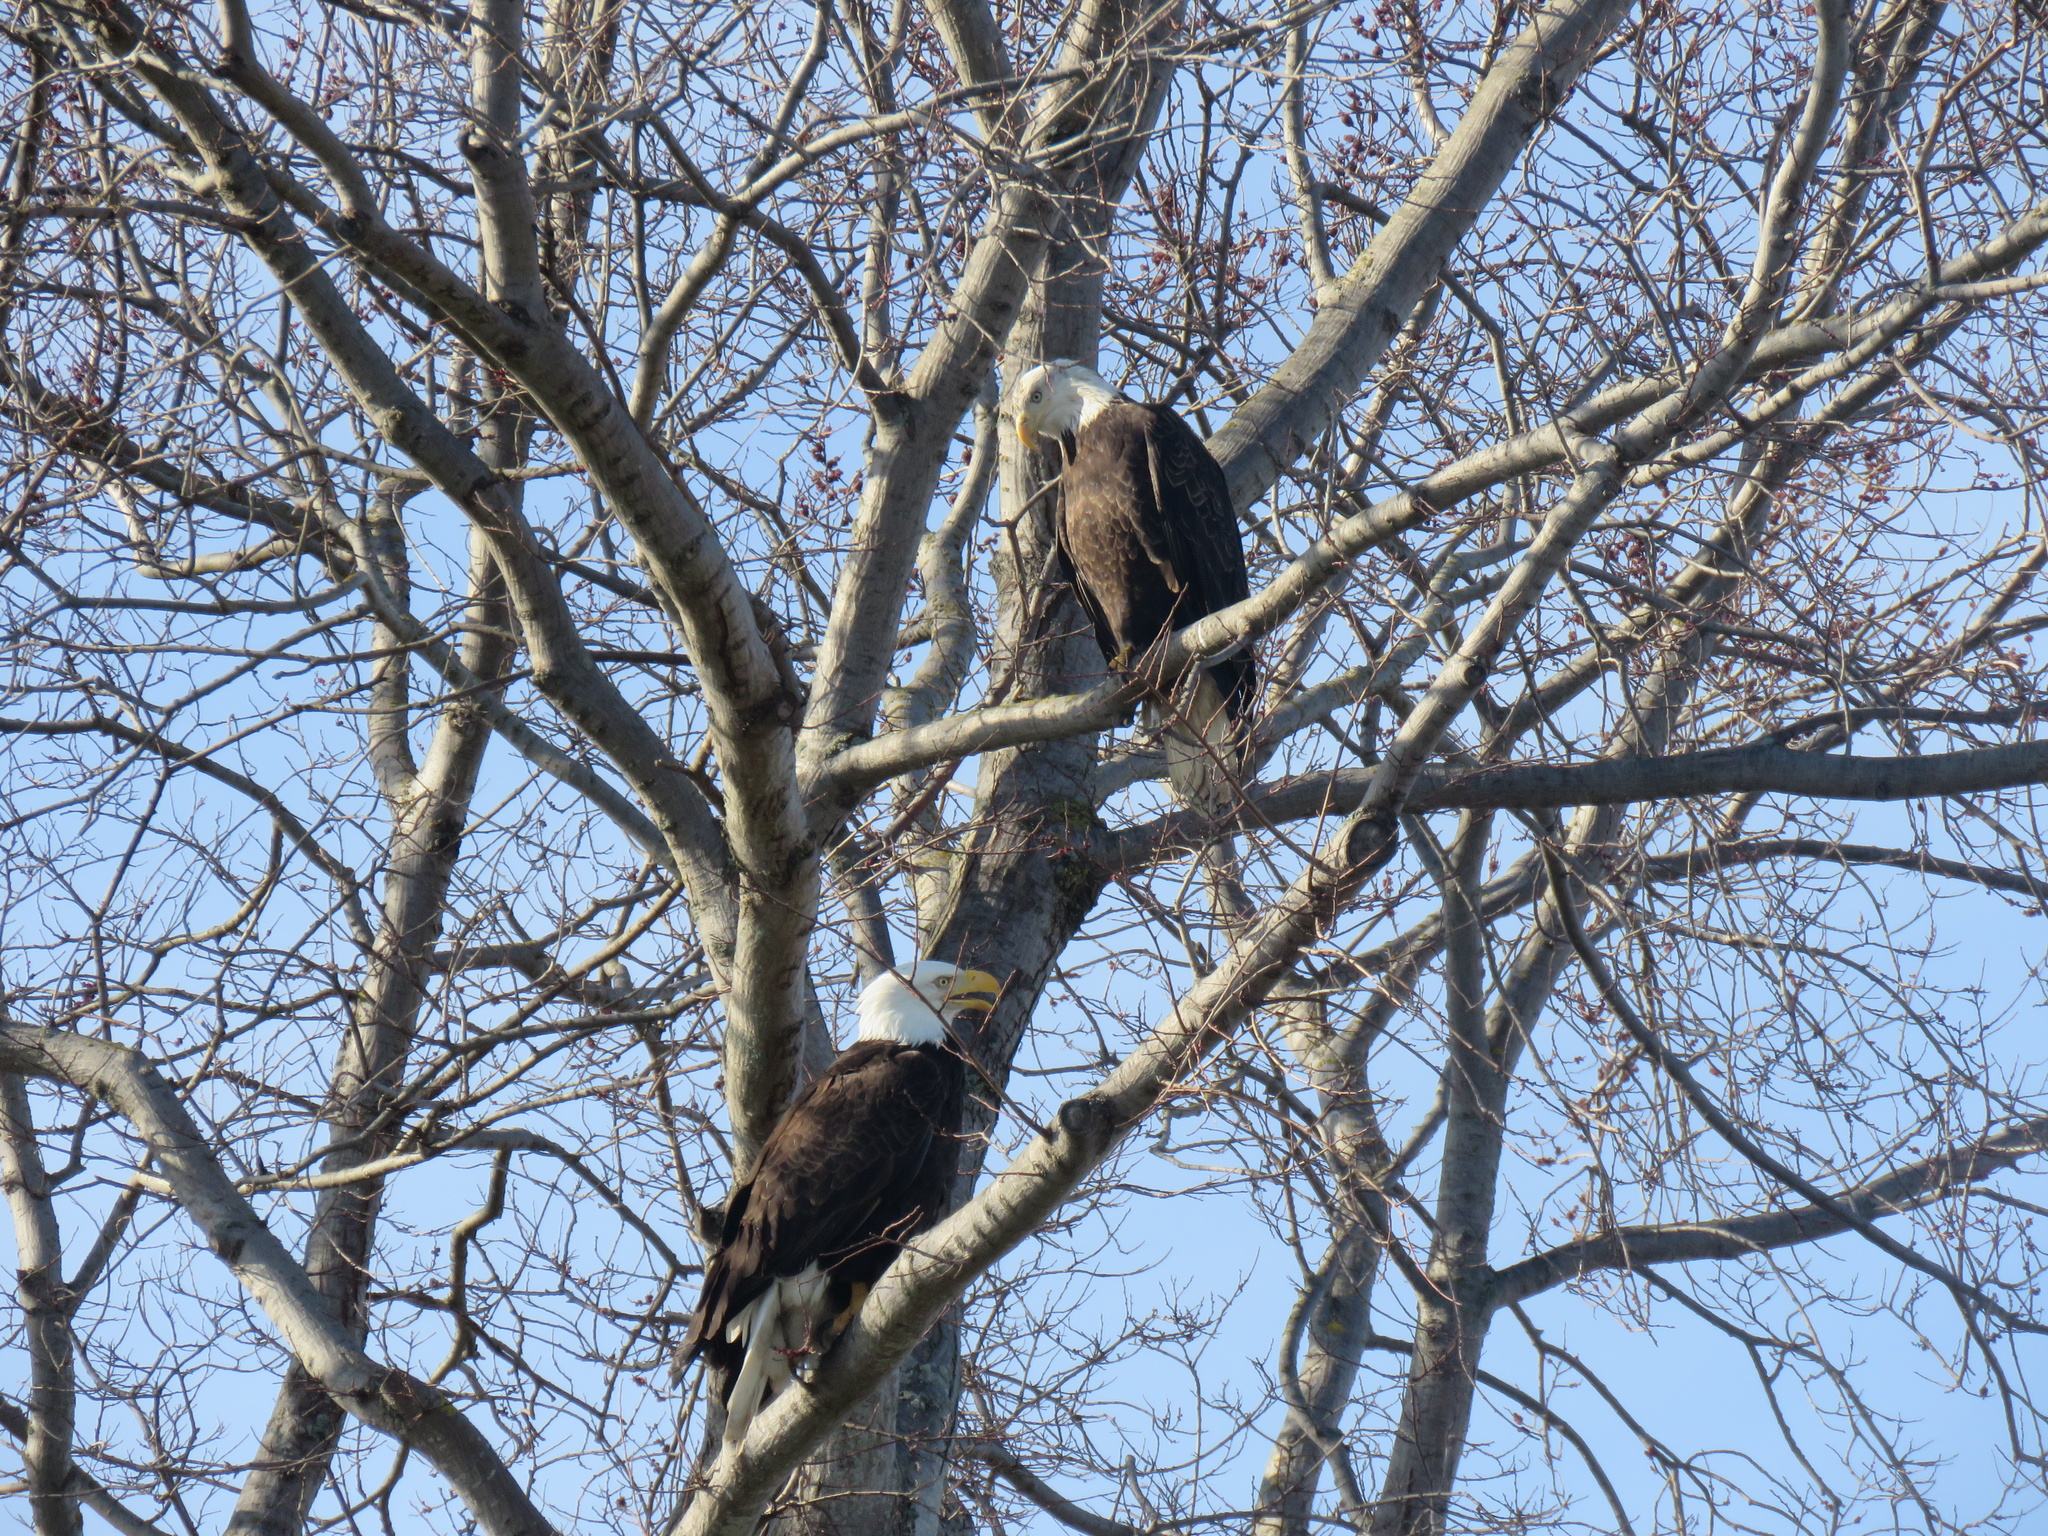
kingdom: Animalia
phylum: Chordata
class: Aves
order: Accipitriformes
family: Accipitridae
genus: Haliaeetus
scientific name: Haliaeetus leucocephalus
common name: Bald eagle
